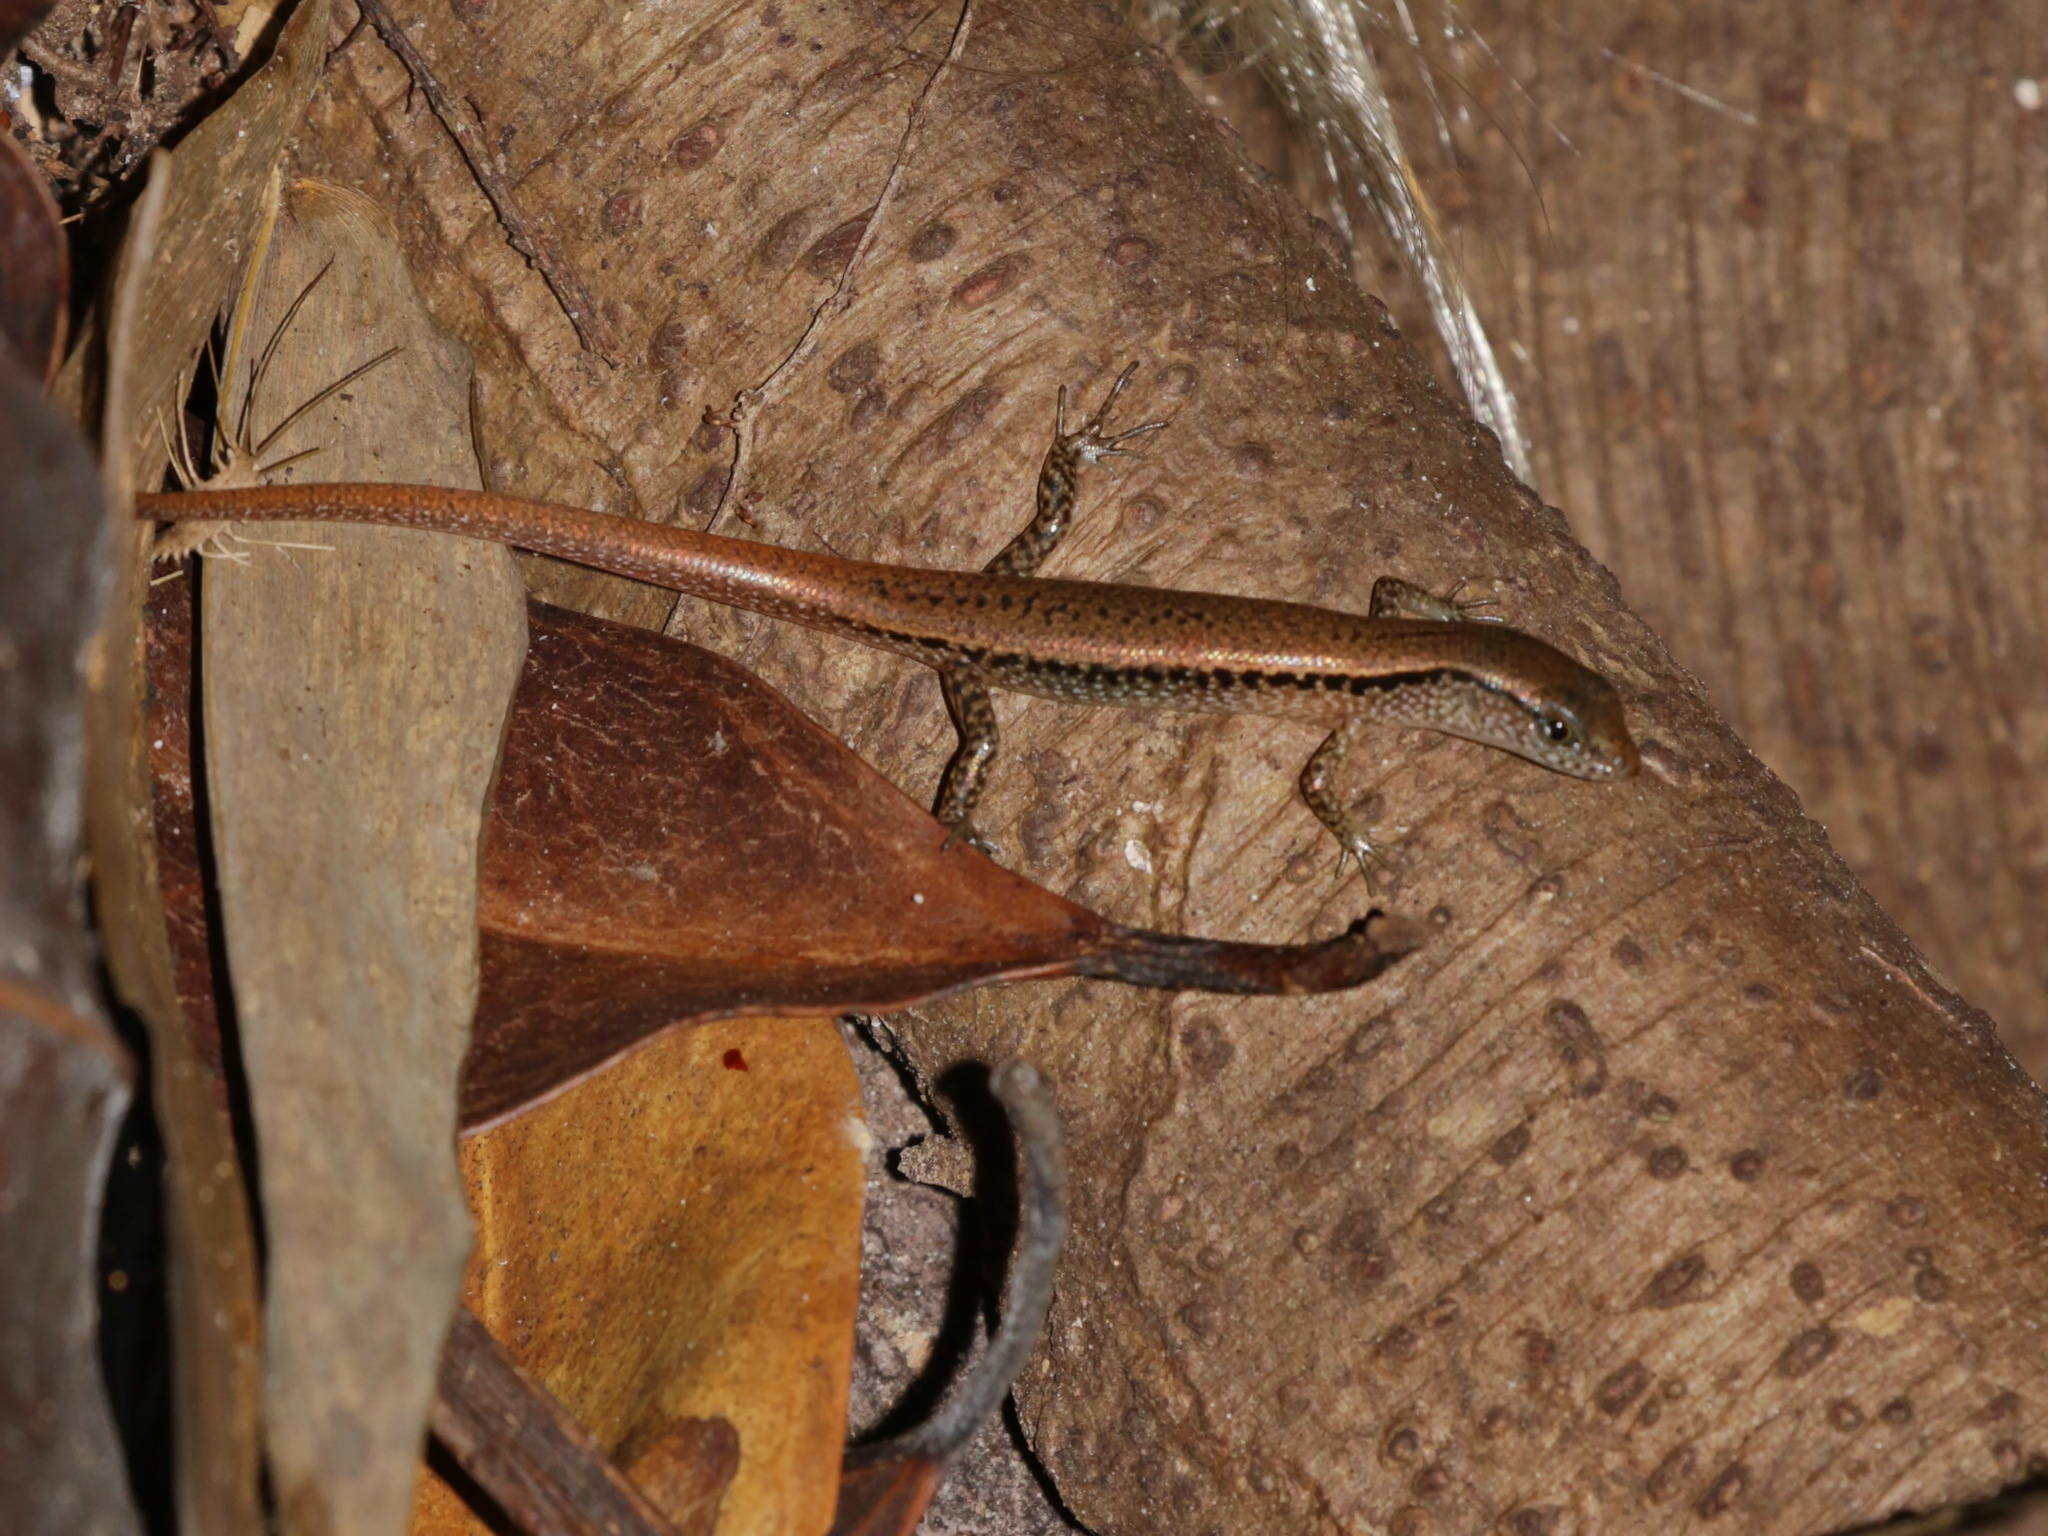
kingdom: Animalia
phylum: Chordata
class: Squamata
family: Scincidae
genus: Sphenomorphus
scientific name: Sphenomorphus mimicus
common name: Dwarf forest skink
